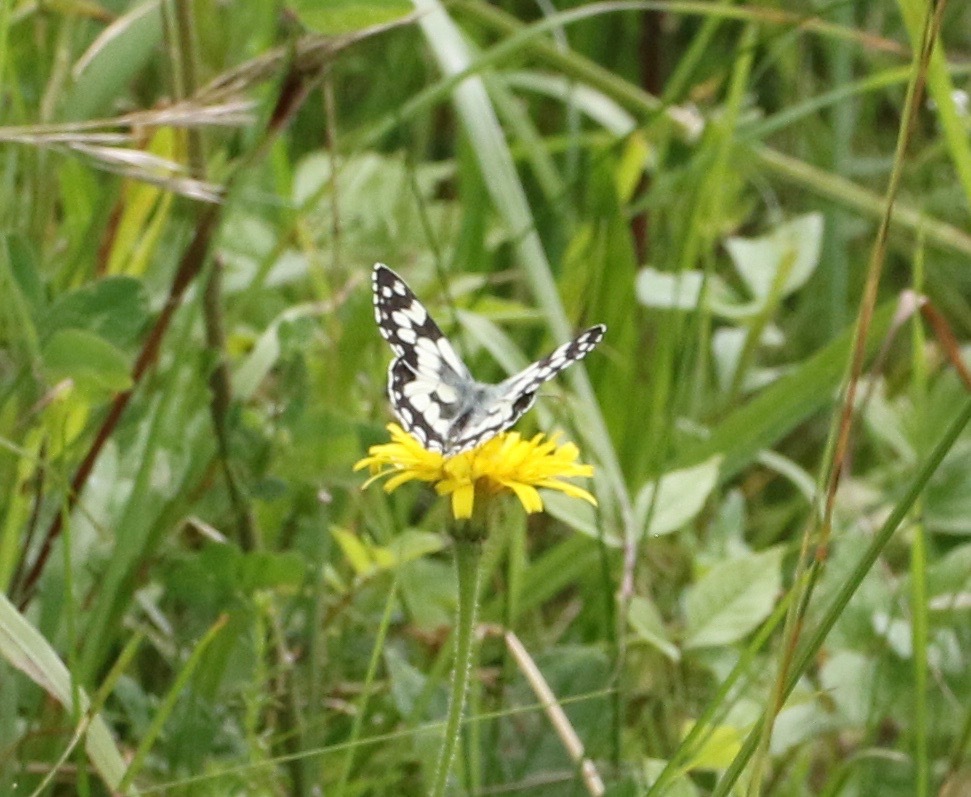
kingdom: Animalia
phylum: Arthropoda
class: Insecta
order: Lepidoptera
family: Nymphalidae
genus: Melanargia
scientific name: Melanargia galathea
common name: Marbled white
